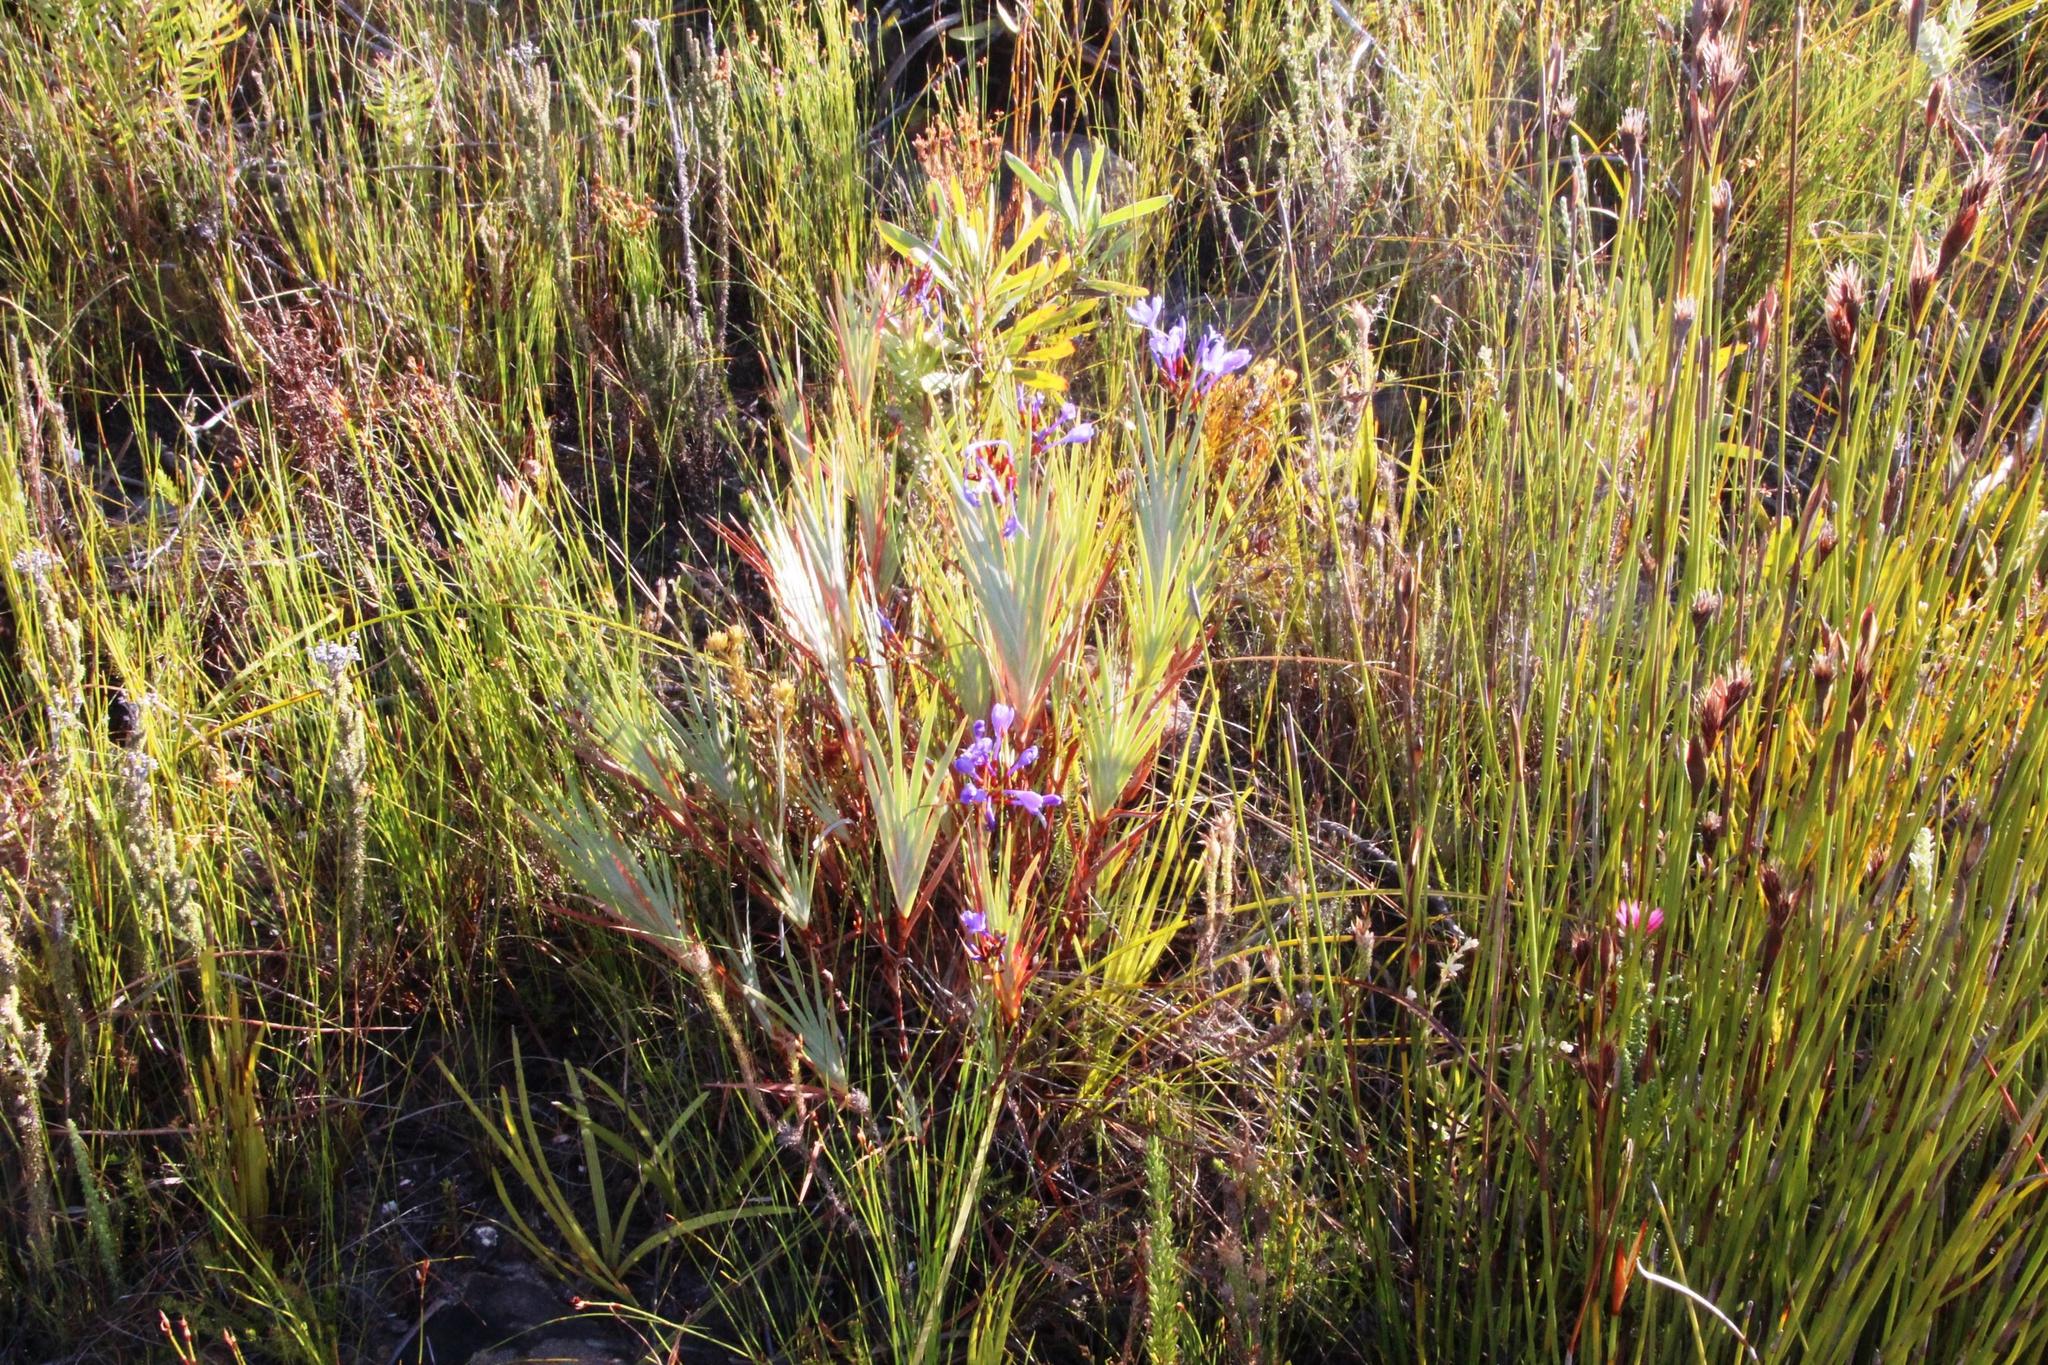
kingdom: Plantae
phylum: Tracheophyta
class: Liliopsida
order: Asparagales
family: Iridaceae
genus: Nivenia
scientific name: Nivenia stokoei
